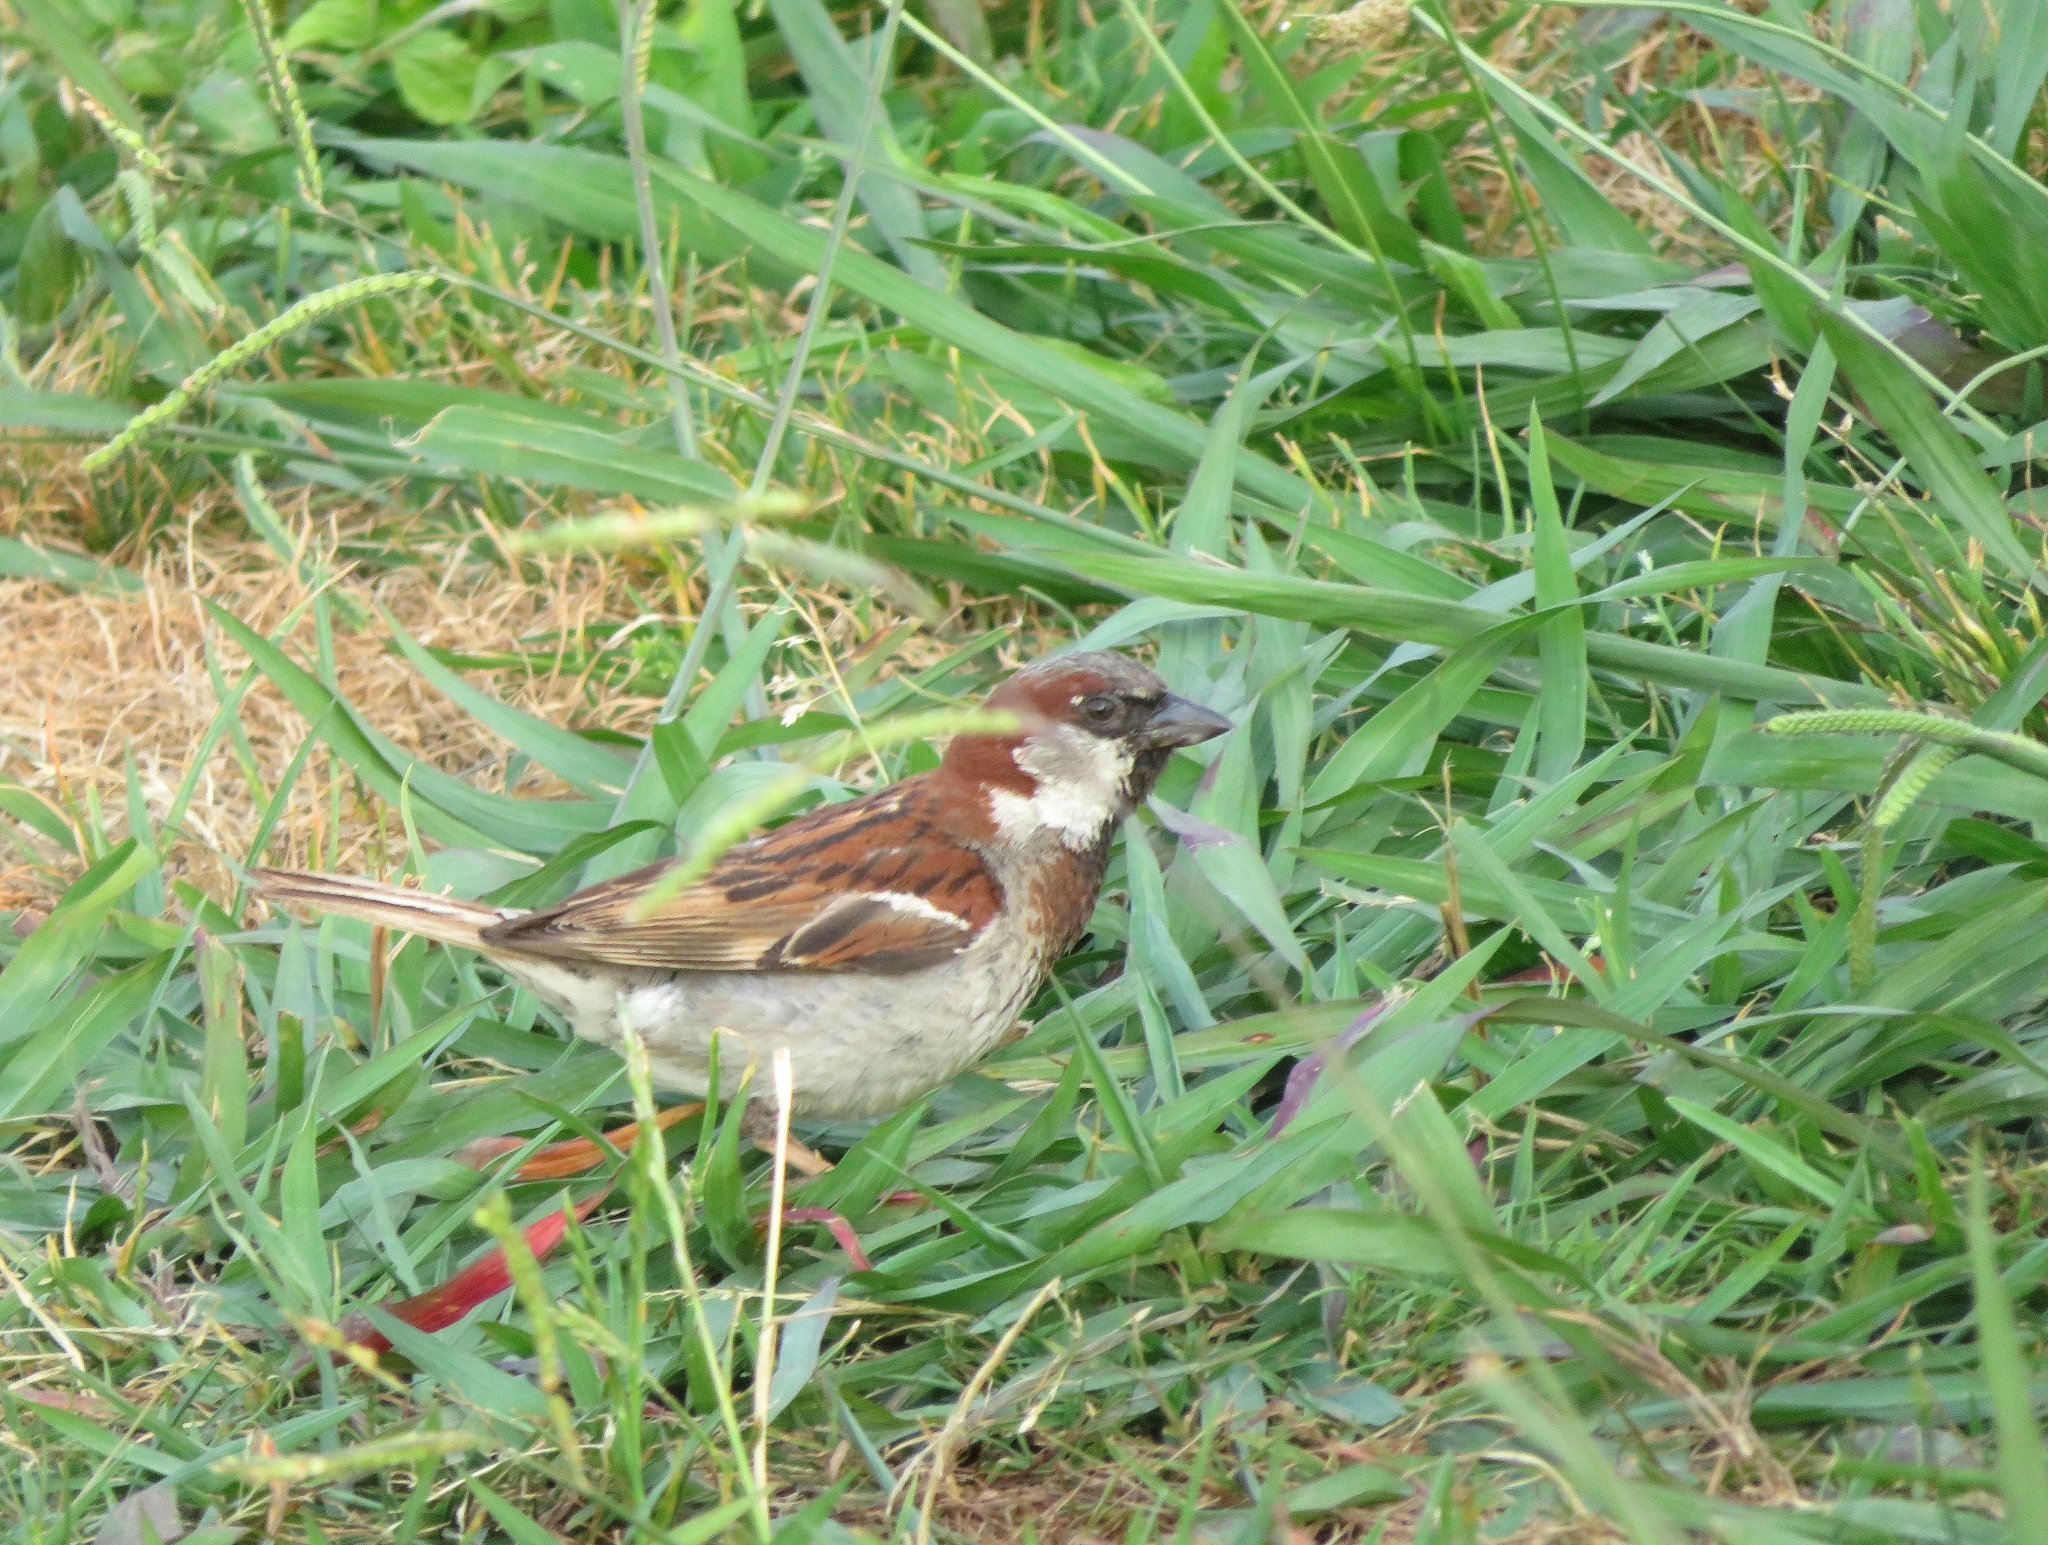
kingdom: Animalia
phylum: Chordata
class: Aves
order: Passeriformes
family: Passeridae
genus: Passer
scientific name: Passer domesticus
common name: House sparrow
